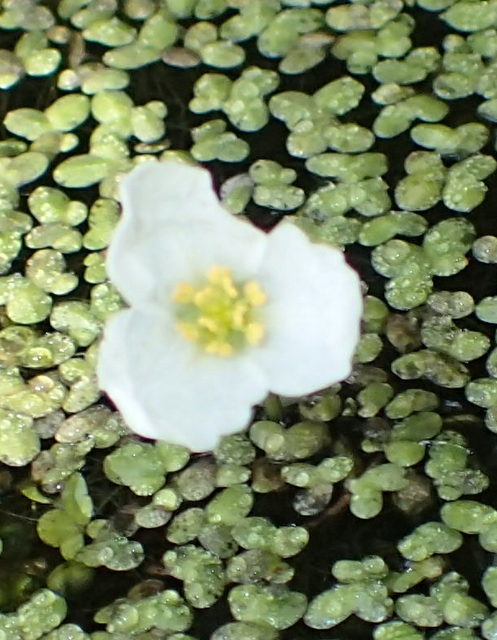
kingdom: Plantae
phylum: Tracheophyta
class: Liliopsida
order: Alismatales
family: Alismataceae
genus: Sagittaria
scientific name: Sagittaria kurziana
